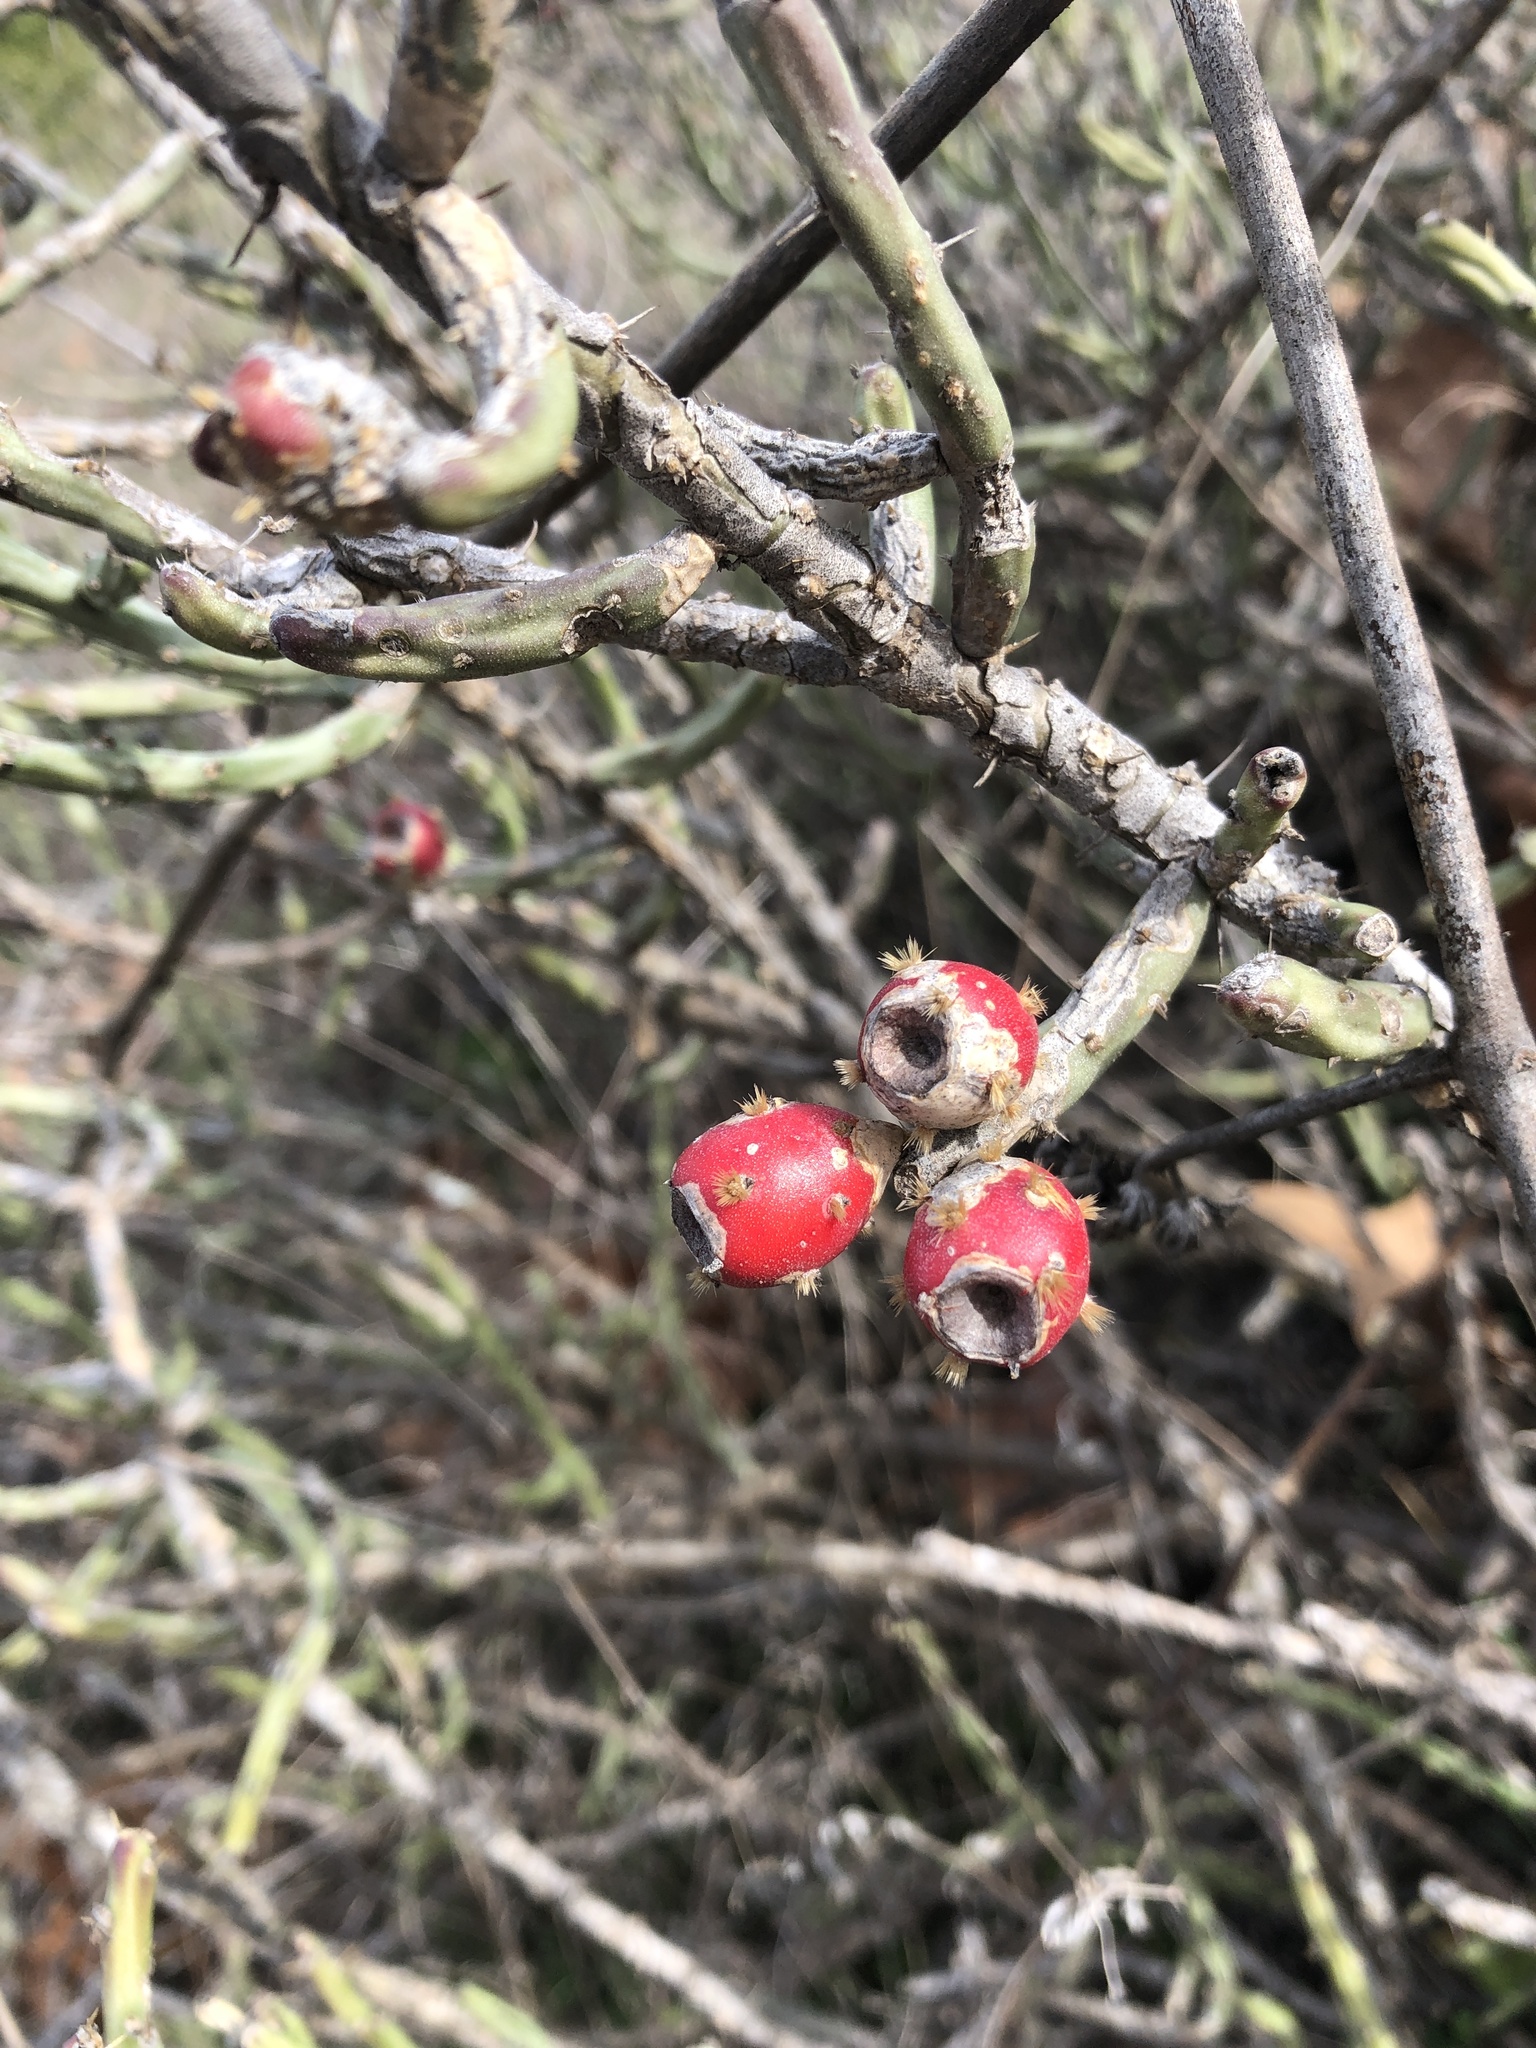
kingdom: Plantae
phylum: Tracheophyta
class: Magnoliopsida
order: Caryophyllales
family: Cactaceae
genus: Cylindropuntia
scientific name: Cylindropuntia leptocaulis
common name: Christmas cactus
